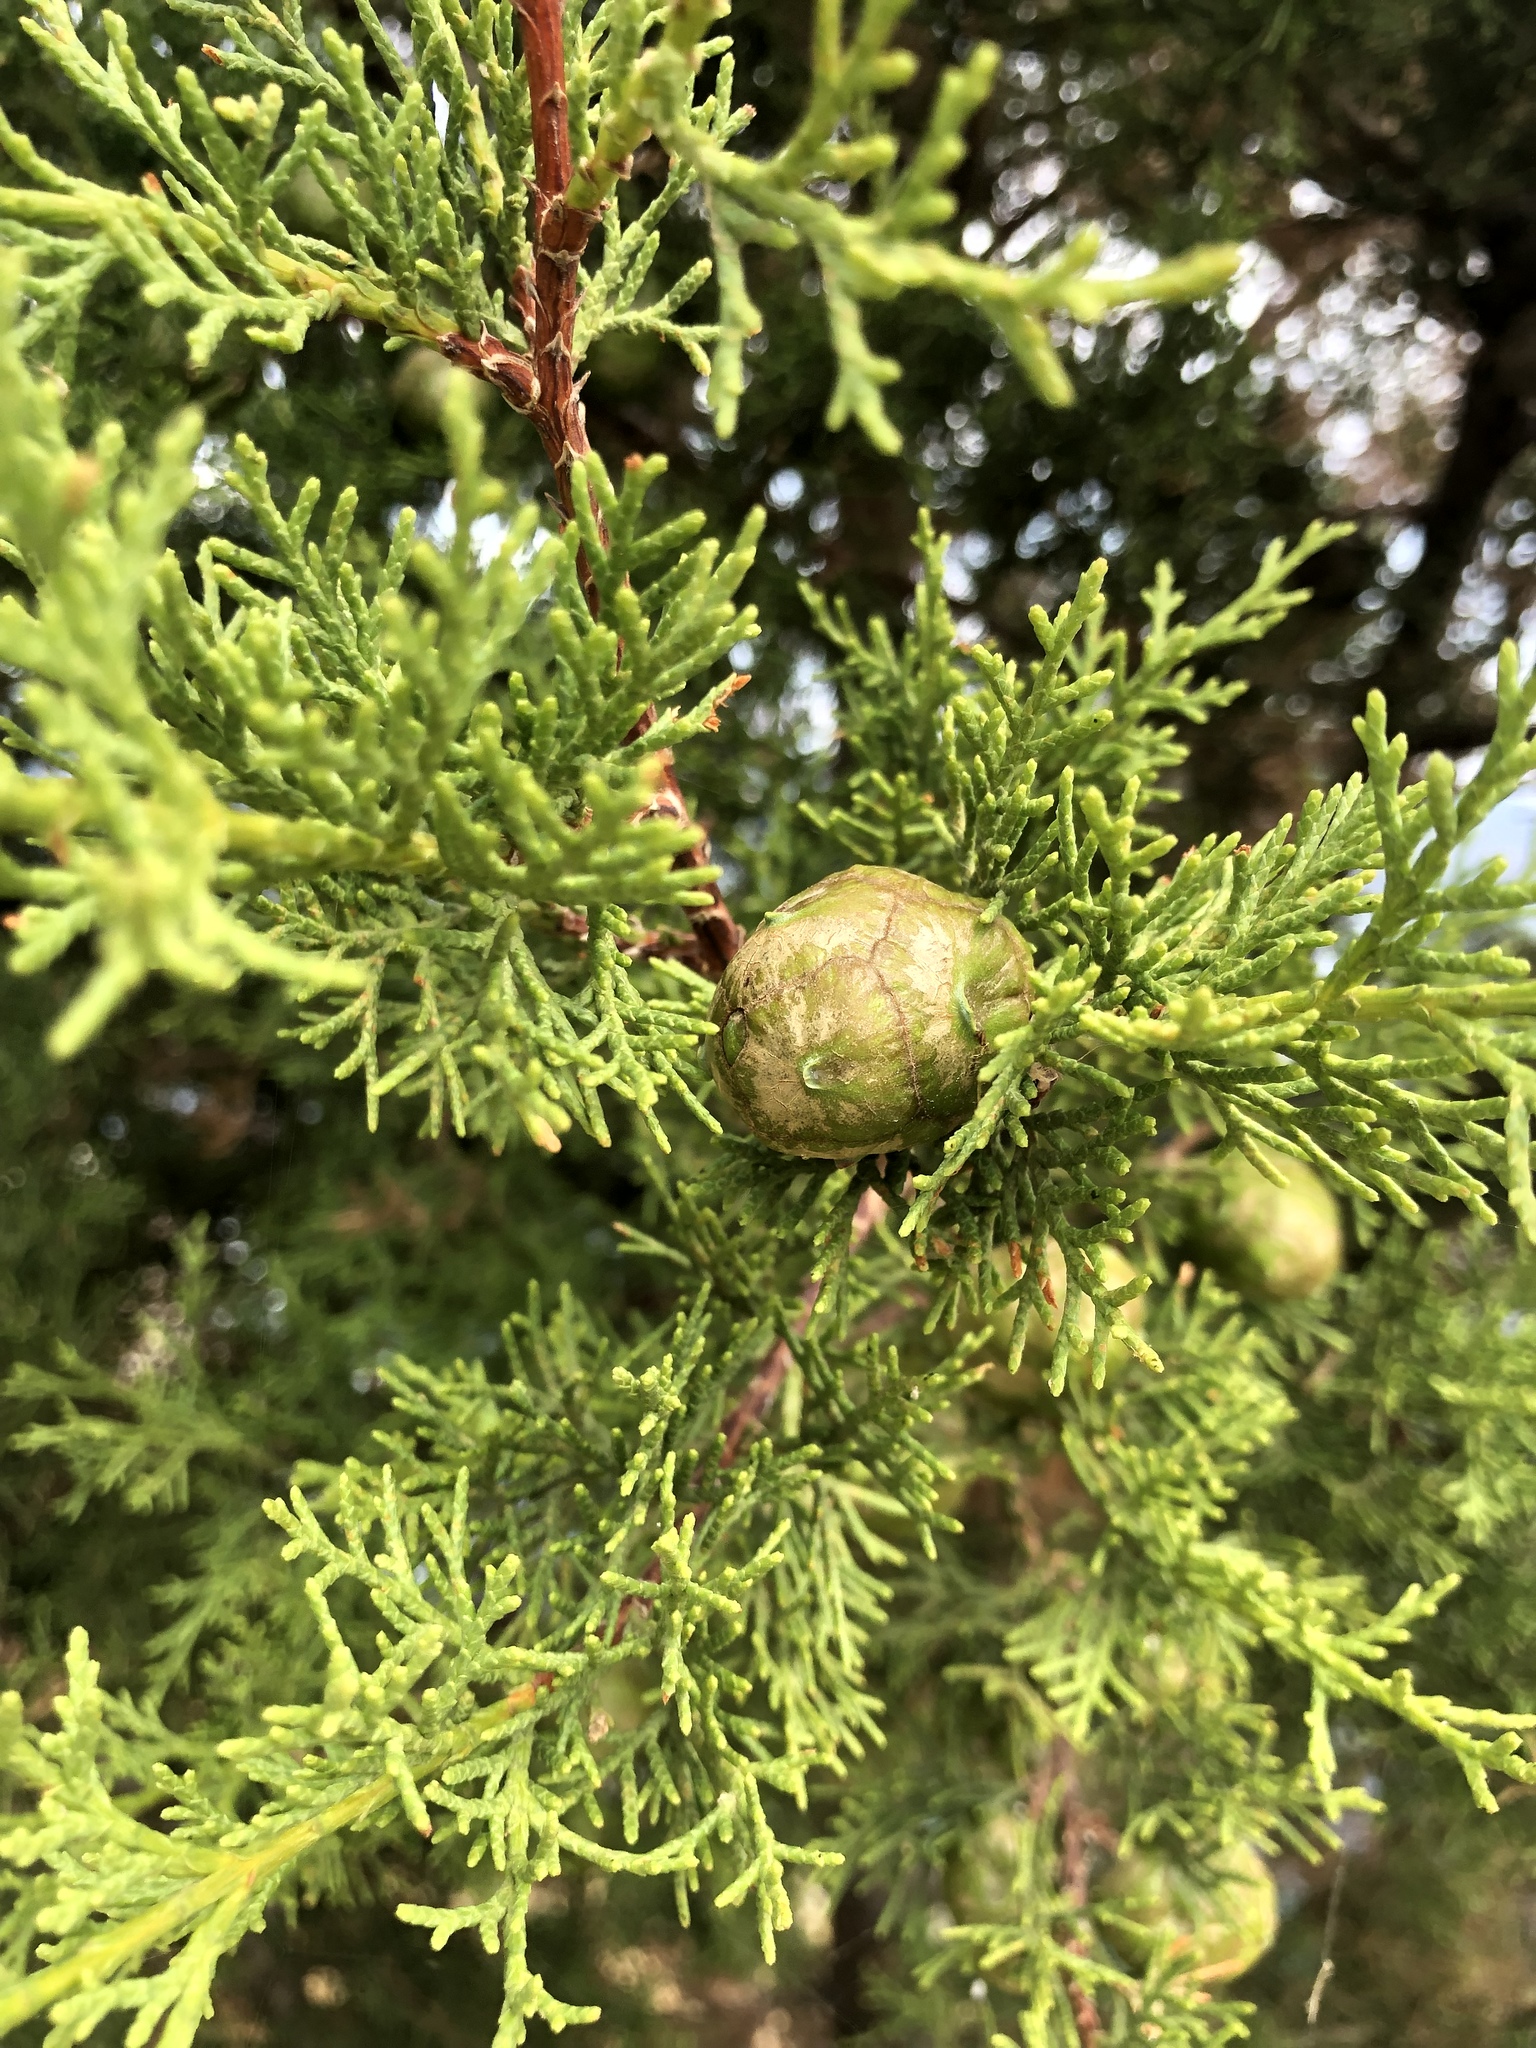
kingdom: Plantae
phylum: Tracheophyta
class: Pinopsida
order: Pinales
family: Cupressaceae
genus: Cupressus
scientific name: Cupressus sempervirens
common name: Italian cypress
